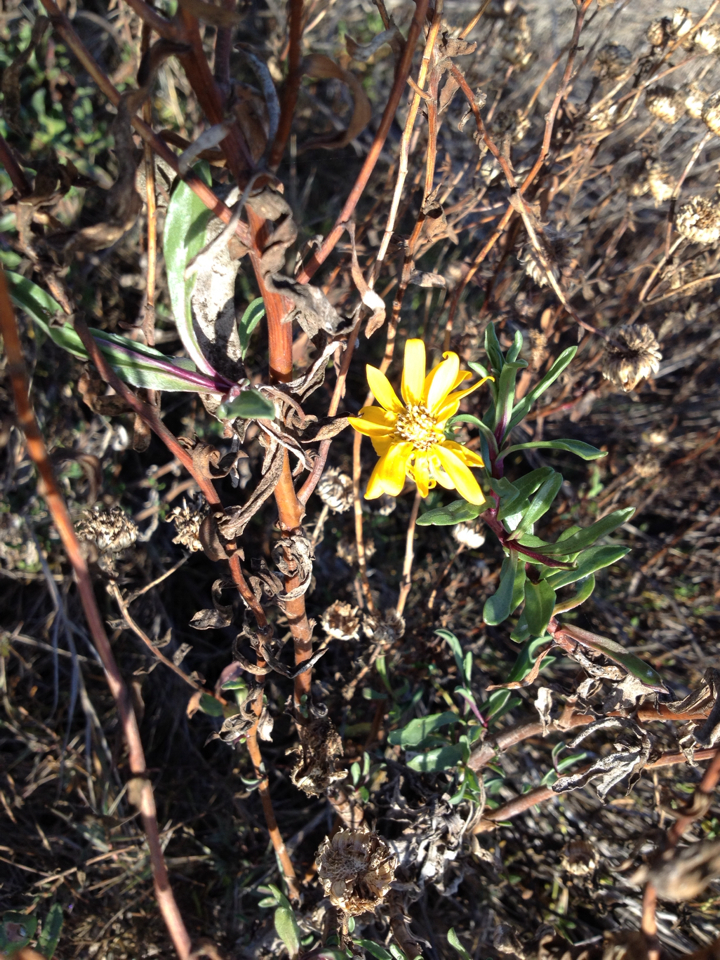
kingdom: Plantae
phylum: Tracheophyta
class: Magnoliopsida
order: Asterales
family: Asteraceae
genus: Grindelia
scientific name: Grindelia hirsutula
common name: Hairy gumweed
